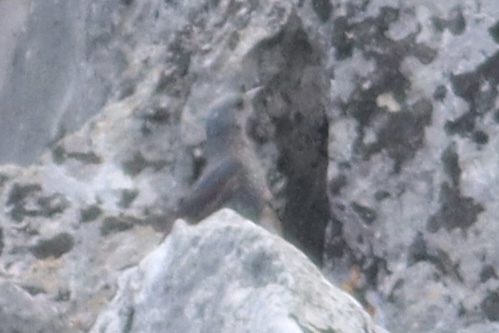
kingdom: Animalia
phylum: Chordata
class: Aves
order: Passeriformes
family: Muscicapidae
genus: Monticola
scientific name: Monticola solitarius
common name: Blue rock thrush
